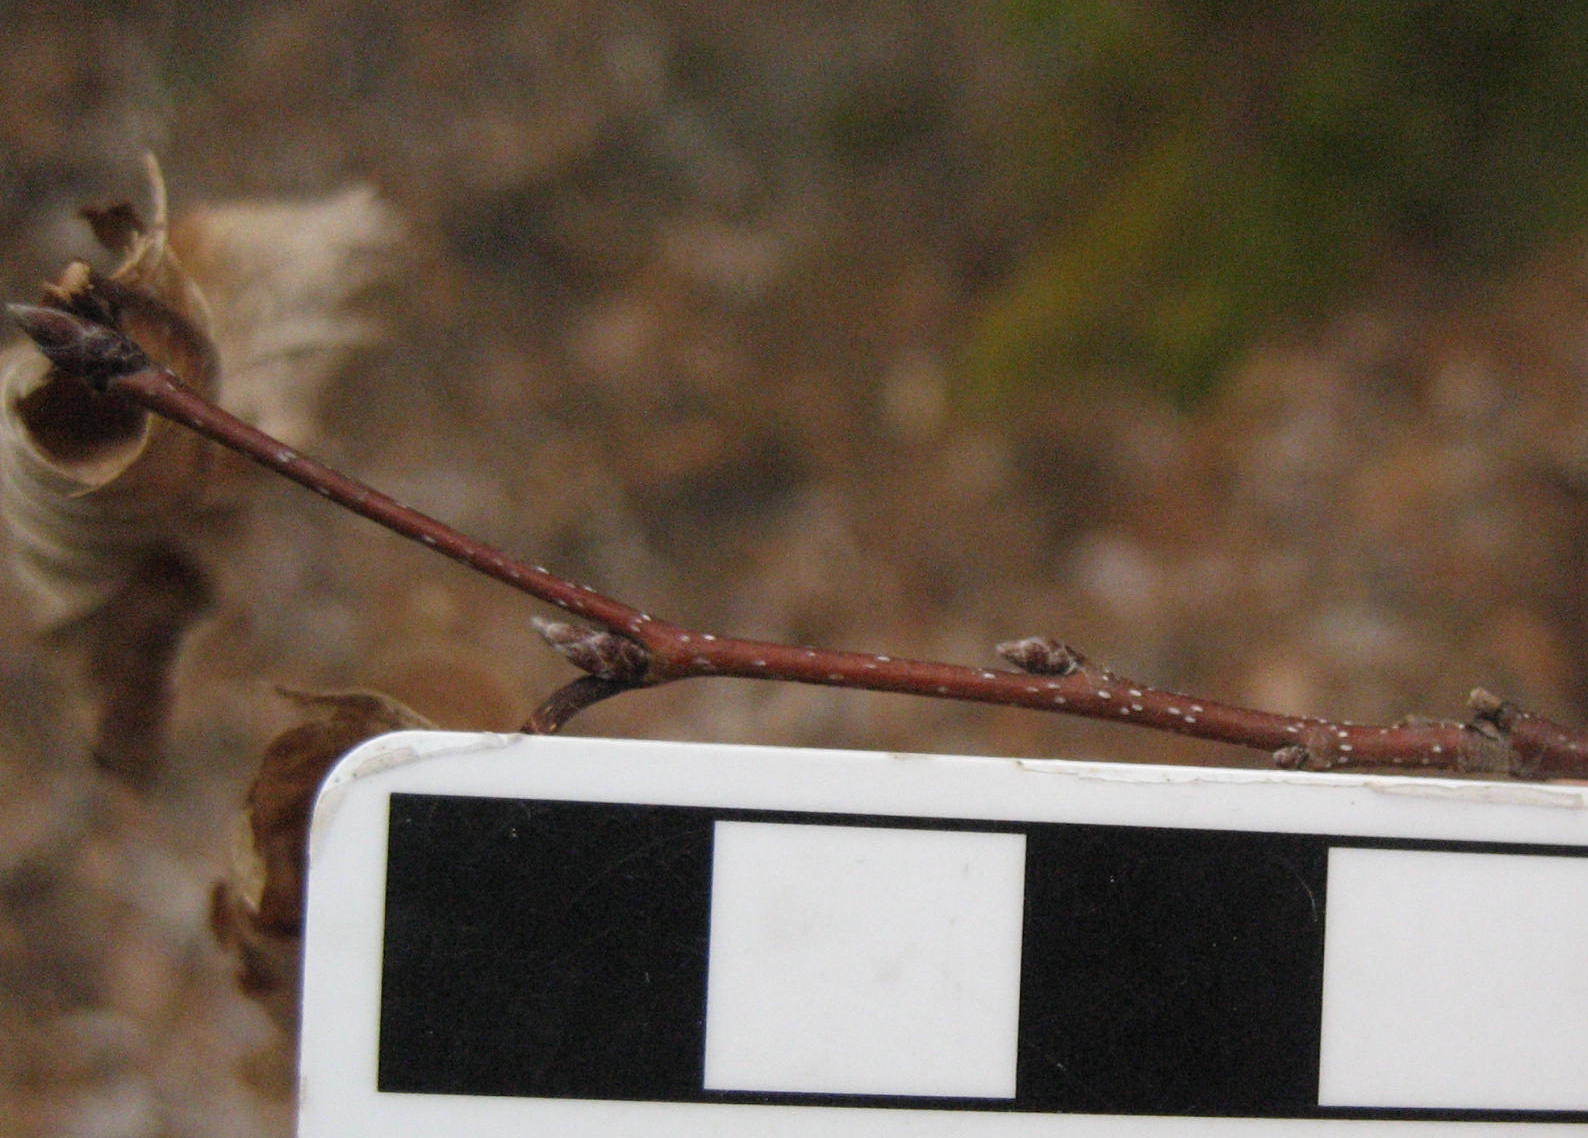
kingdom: Plantae
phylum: Tracheophyta
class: Magnoliopsida
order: Fagales
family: Betulaceae
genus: Carpinus
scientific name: Carpinus caroliniana
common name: American hornbeam
